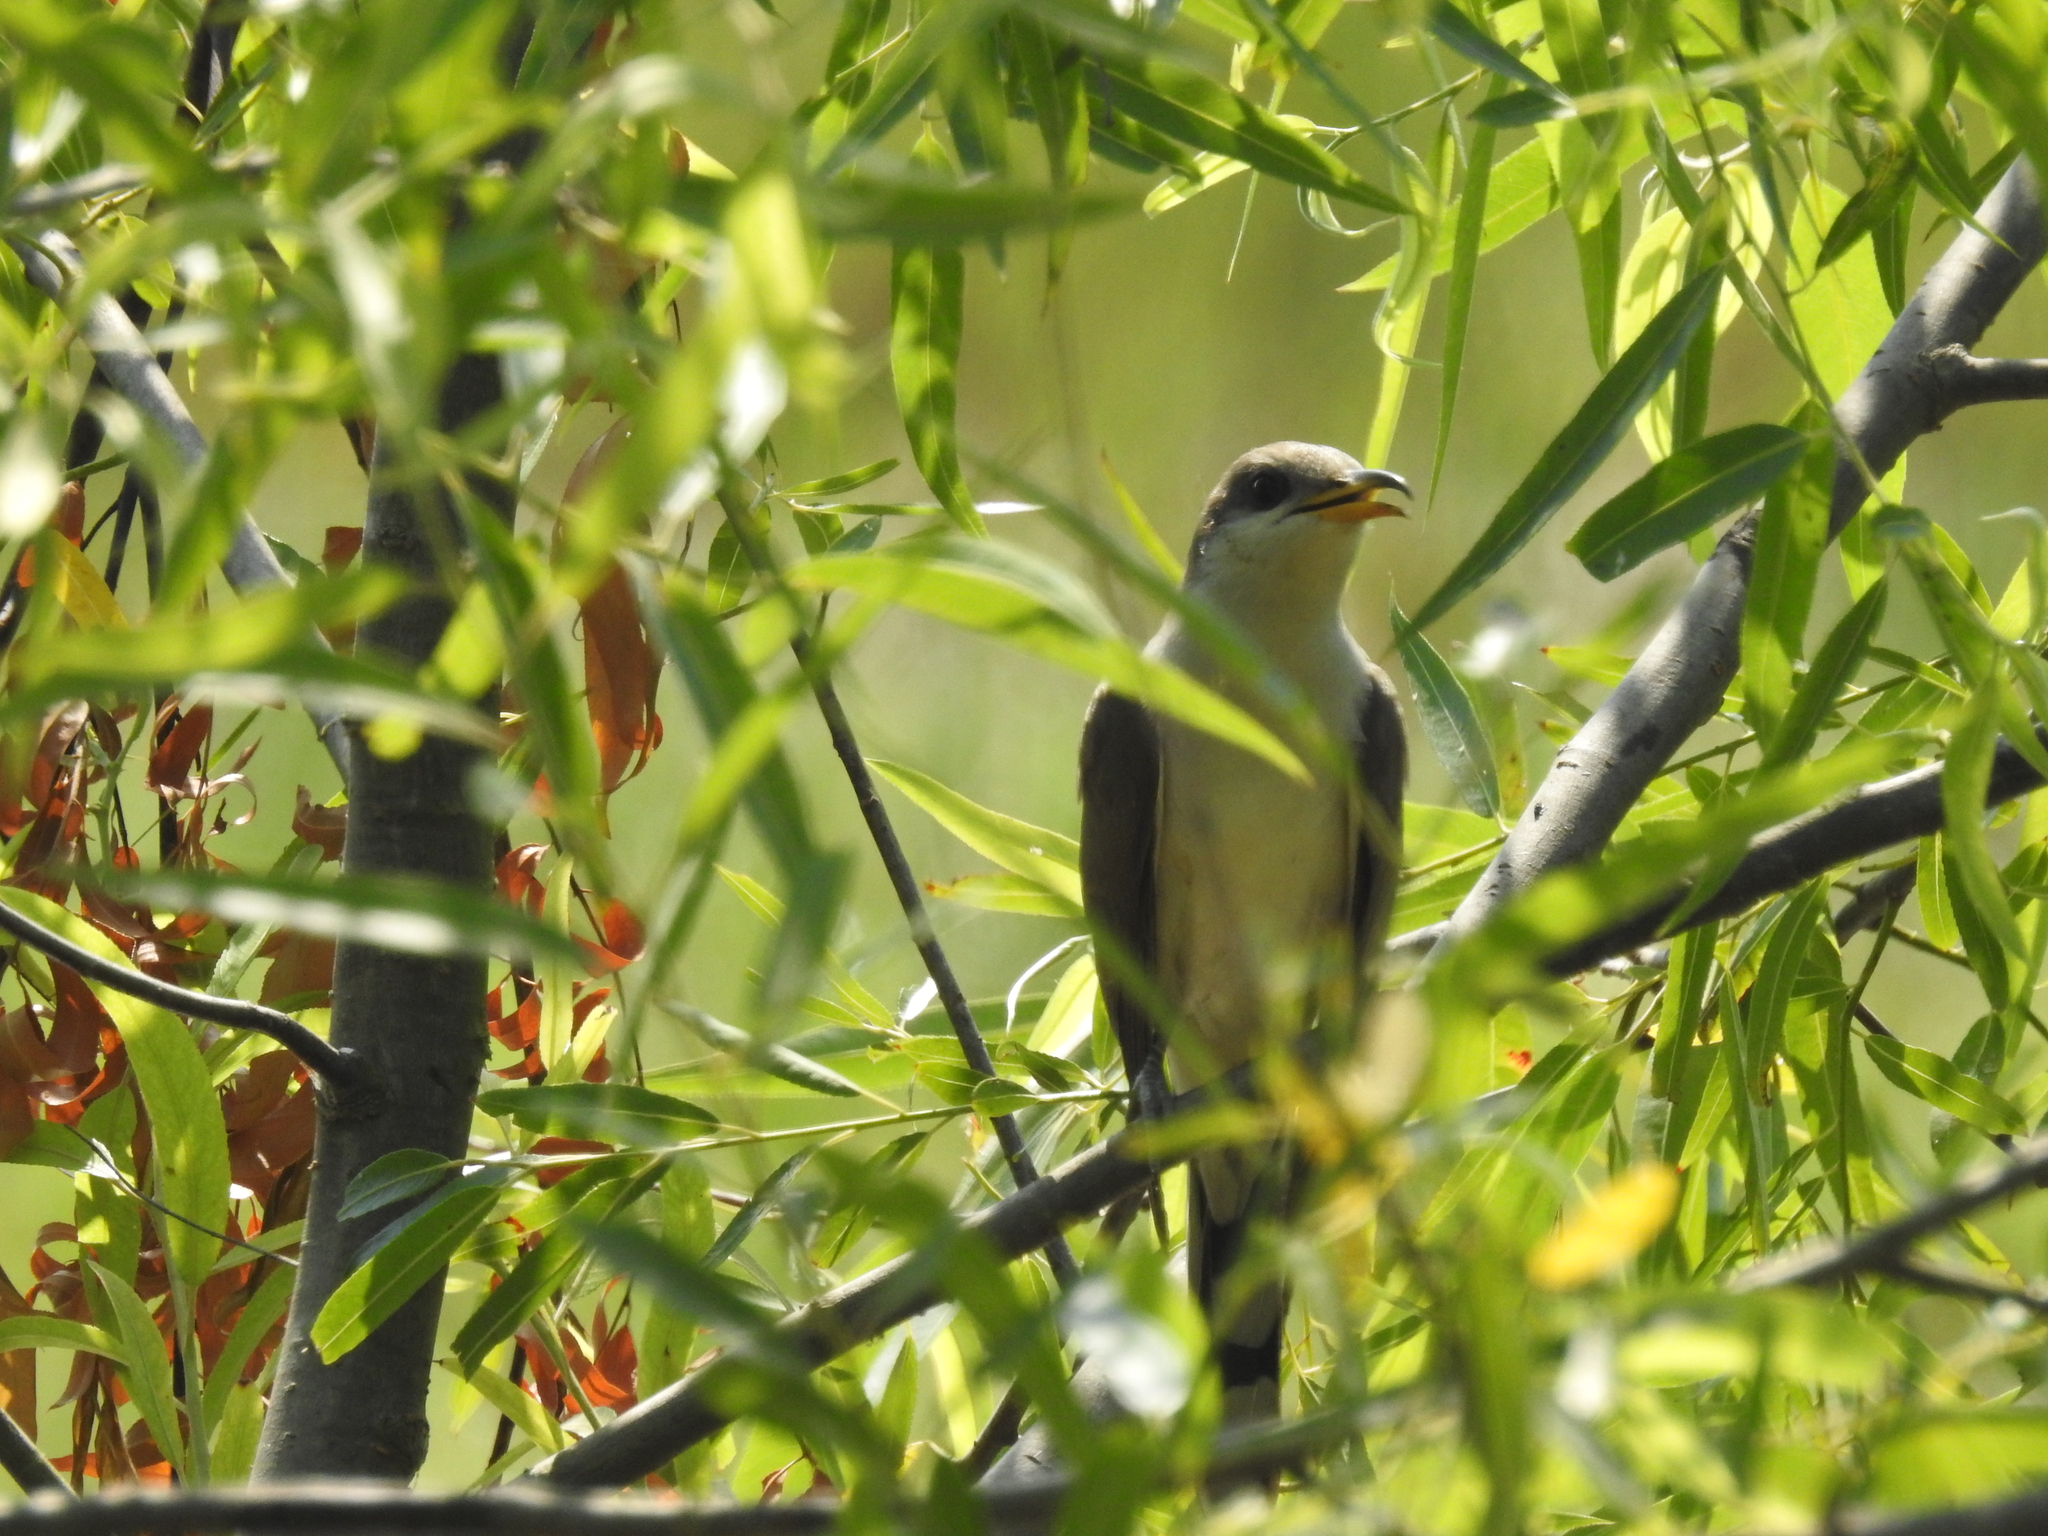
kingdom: Animalia
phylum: Chordata
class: Aves
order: Cuculiformes
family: Cuculidae
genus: Coccyzus
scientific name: Coccyzus americanus
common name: Yellow-billed cuckoo
